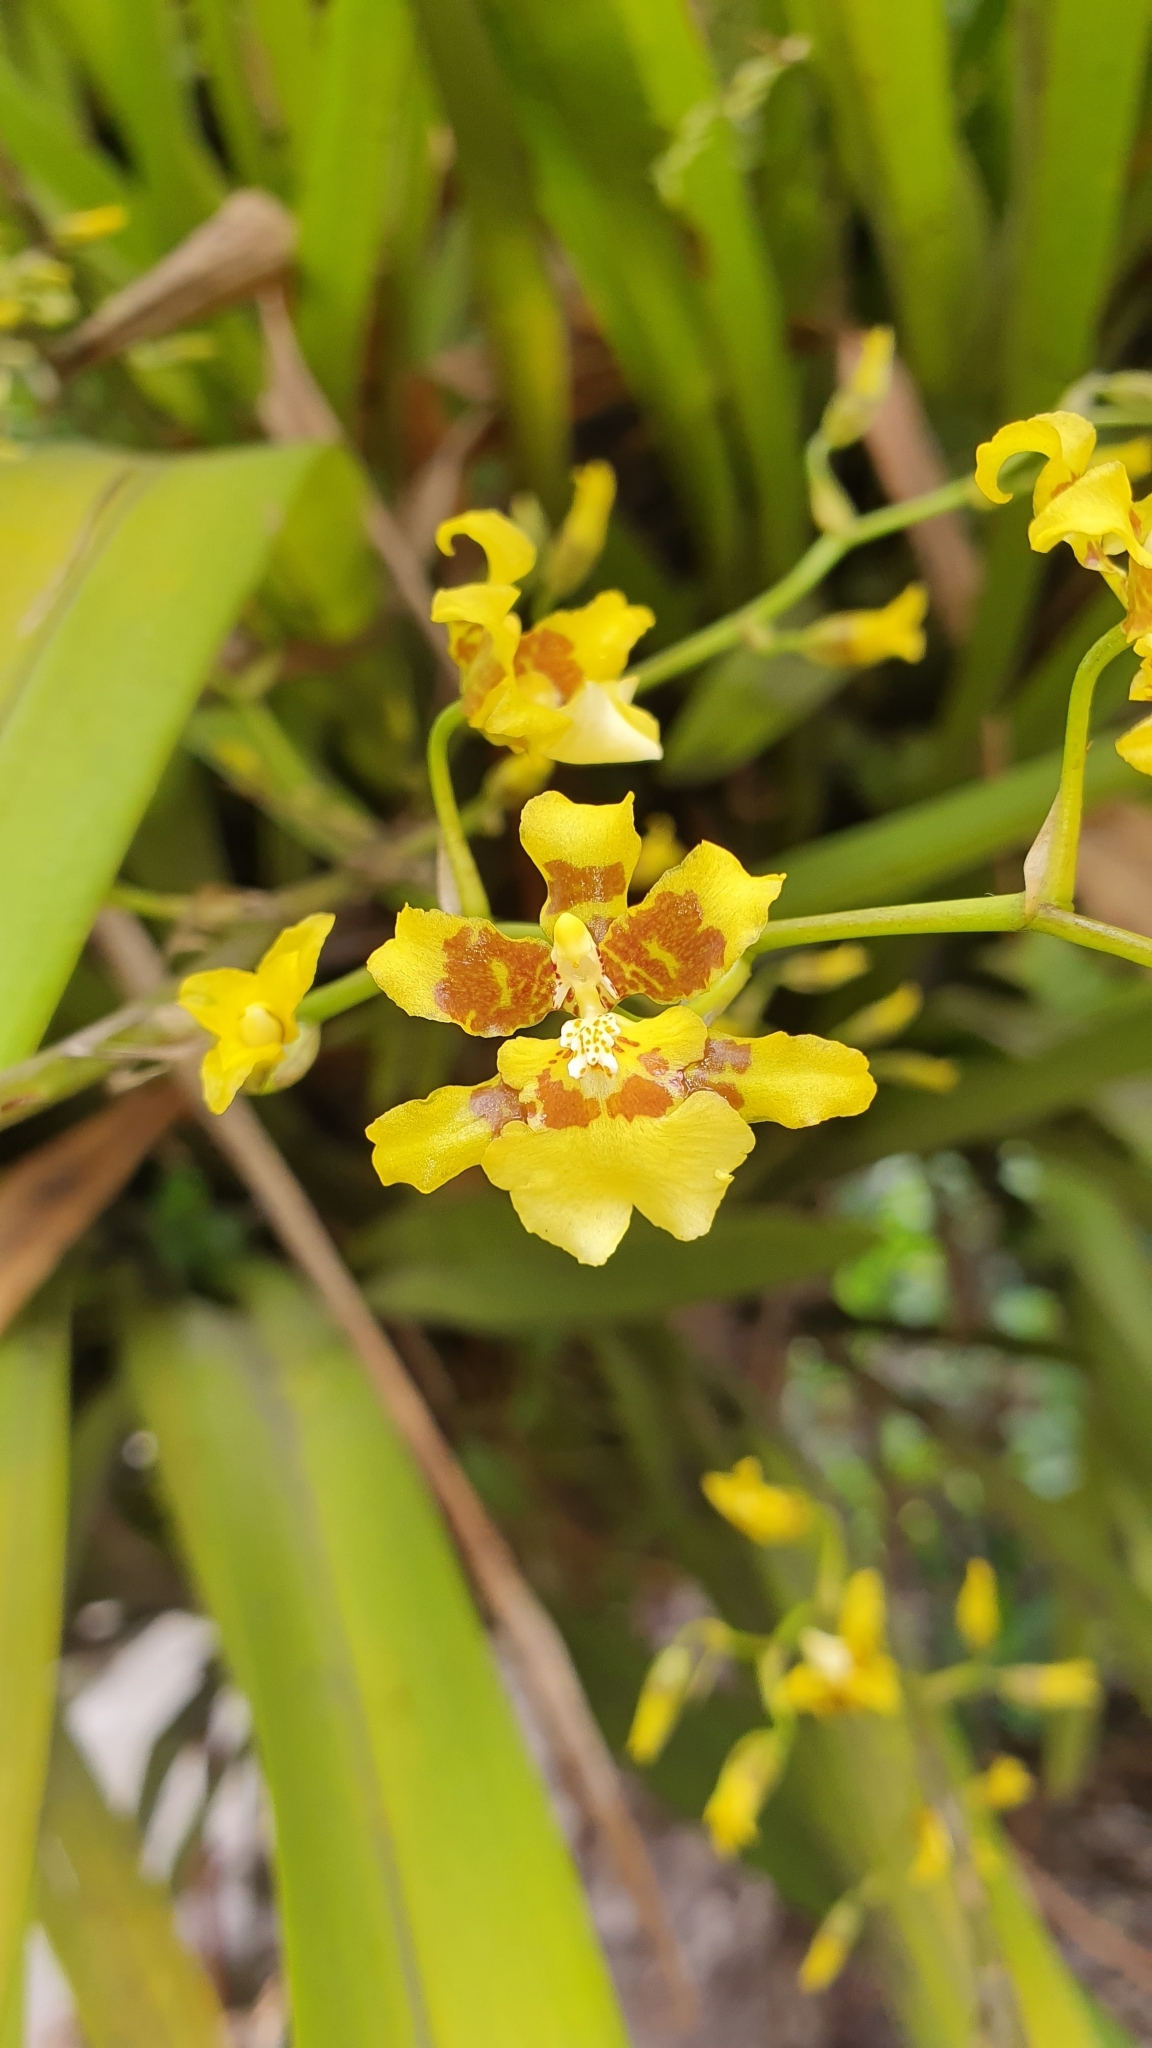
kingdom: Plantae
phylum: Tracheophyta
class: Liliopsida
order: Asparagales
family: Orchidaceae
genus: Oncidium
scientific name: Oncidium sphacelatum
